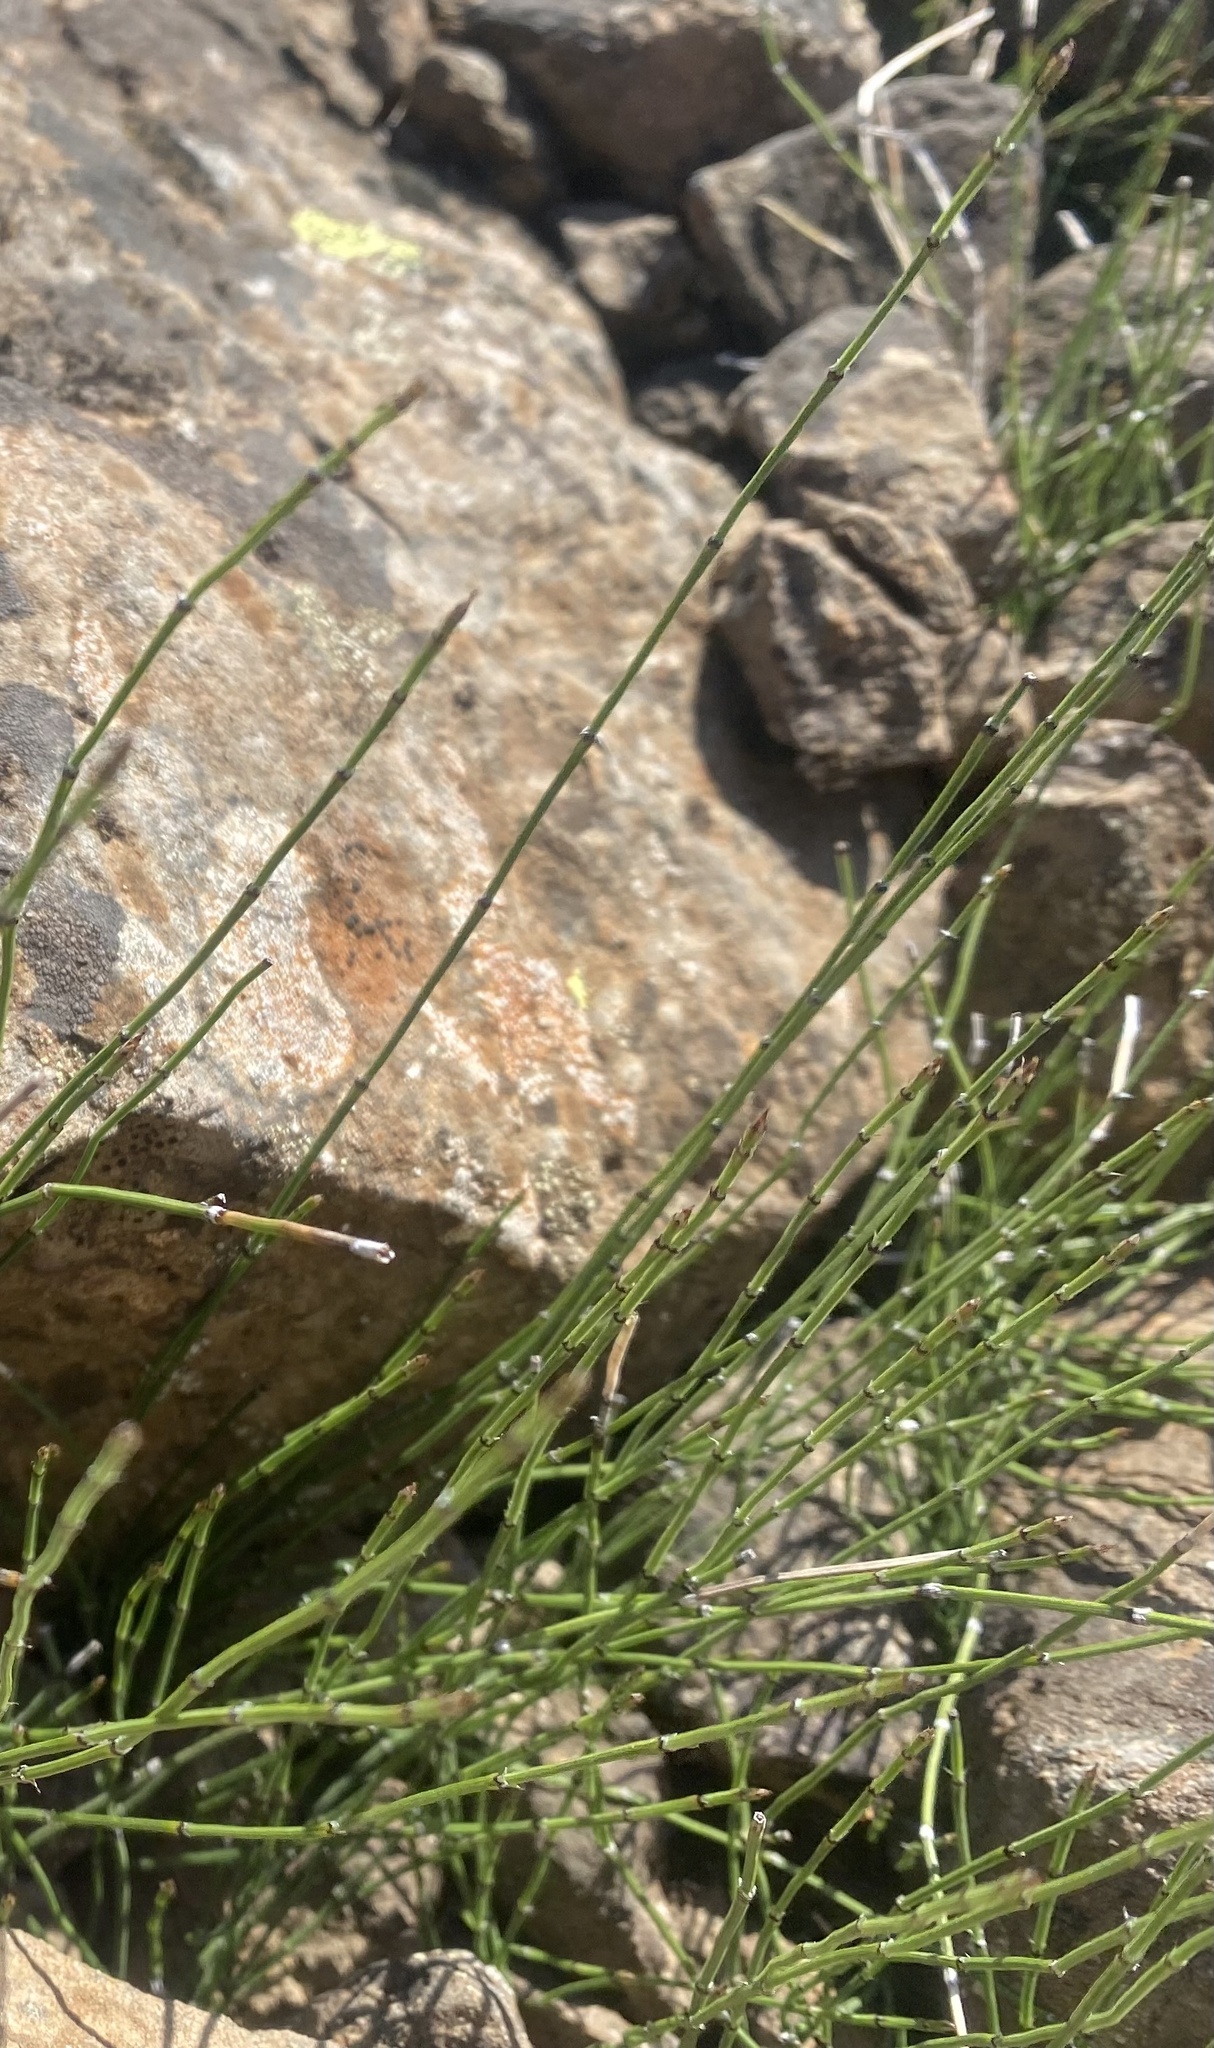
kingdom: Plantae
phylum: Tracheophyta
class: Polypodiopsida
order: Equisetales
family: Equisetaceae
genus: Equisetum
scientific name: Equisetum variegatum
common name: Variegated horsetail
